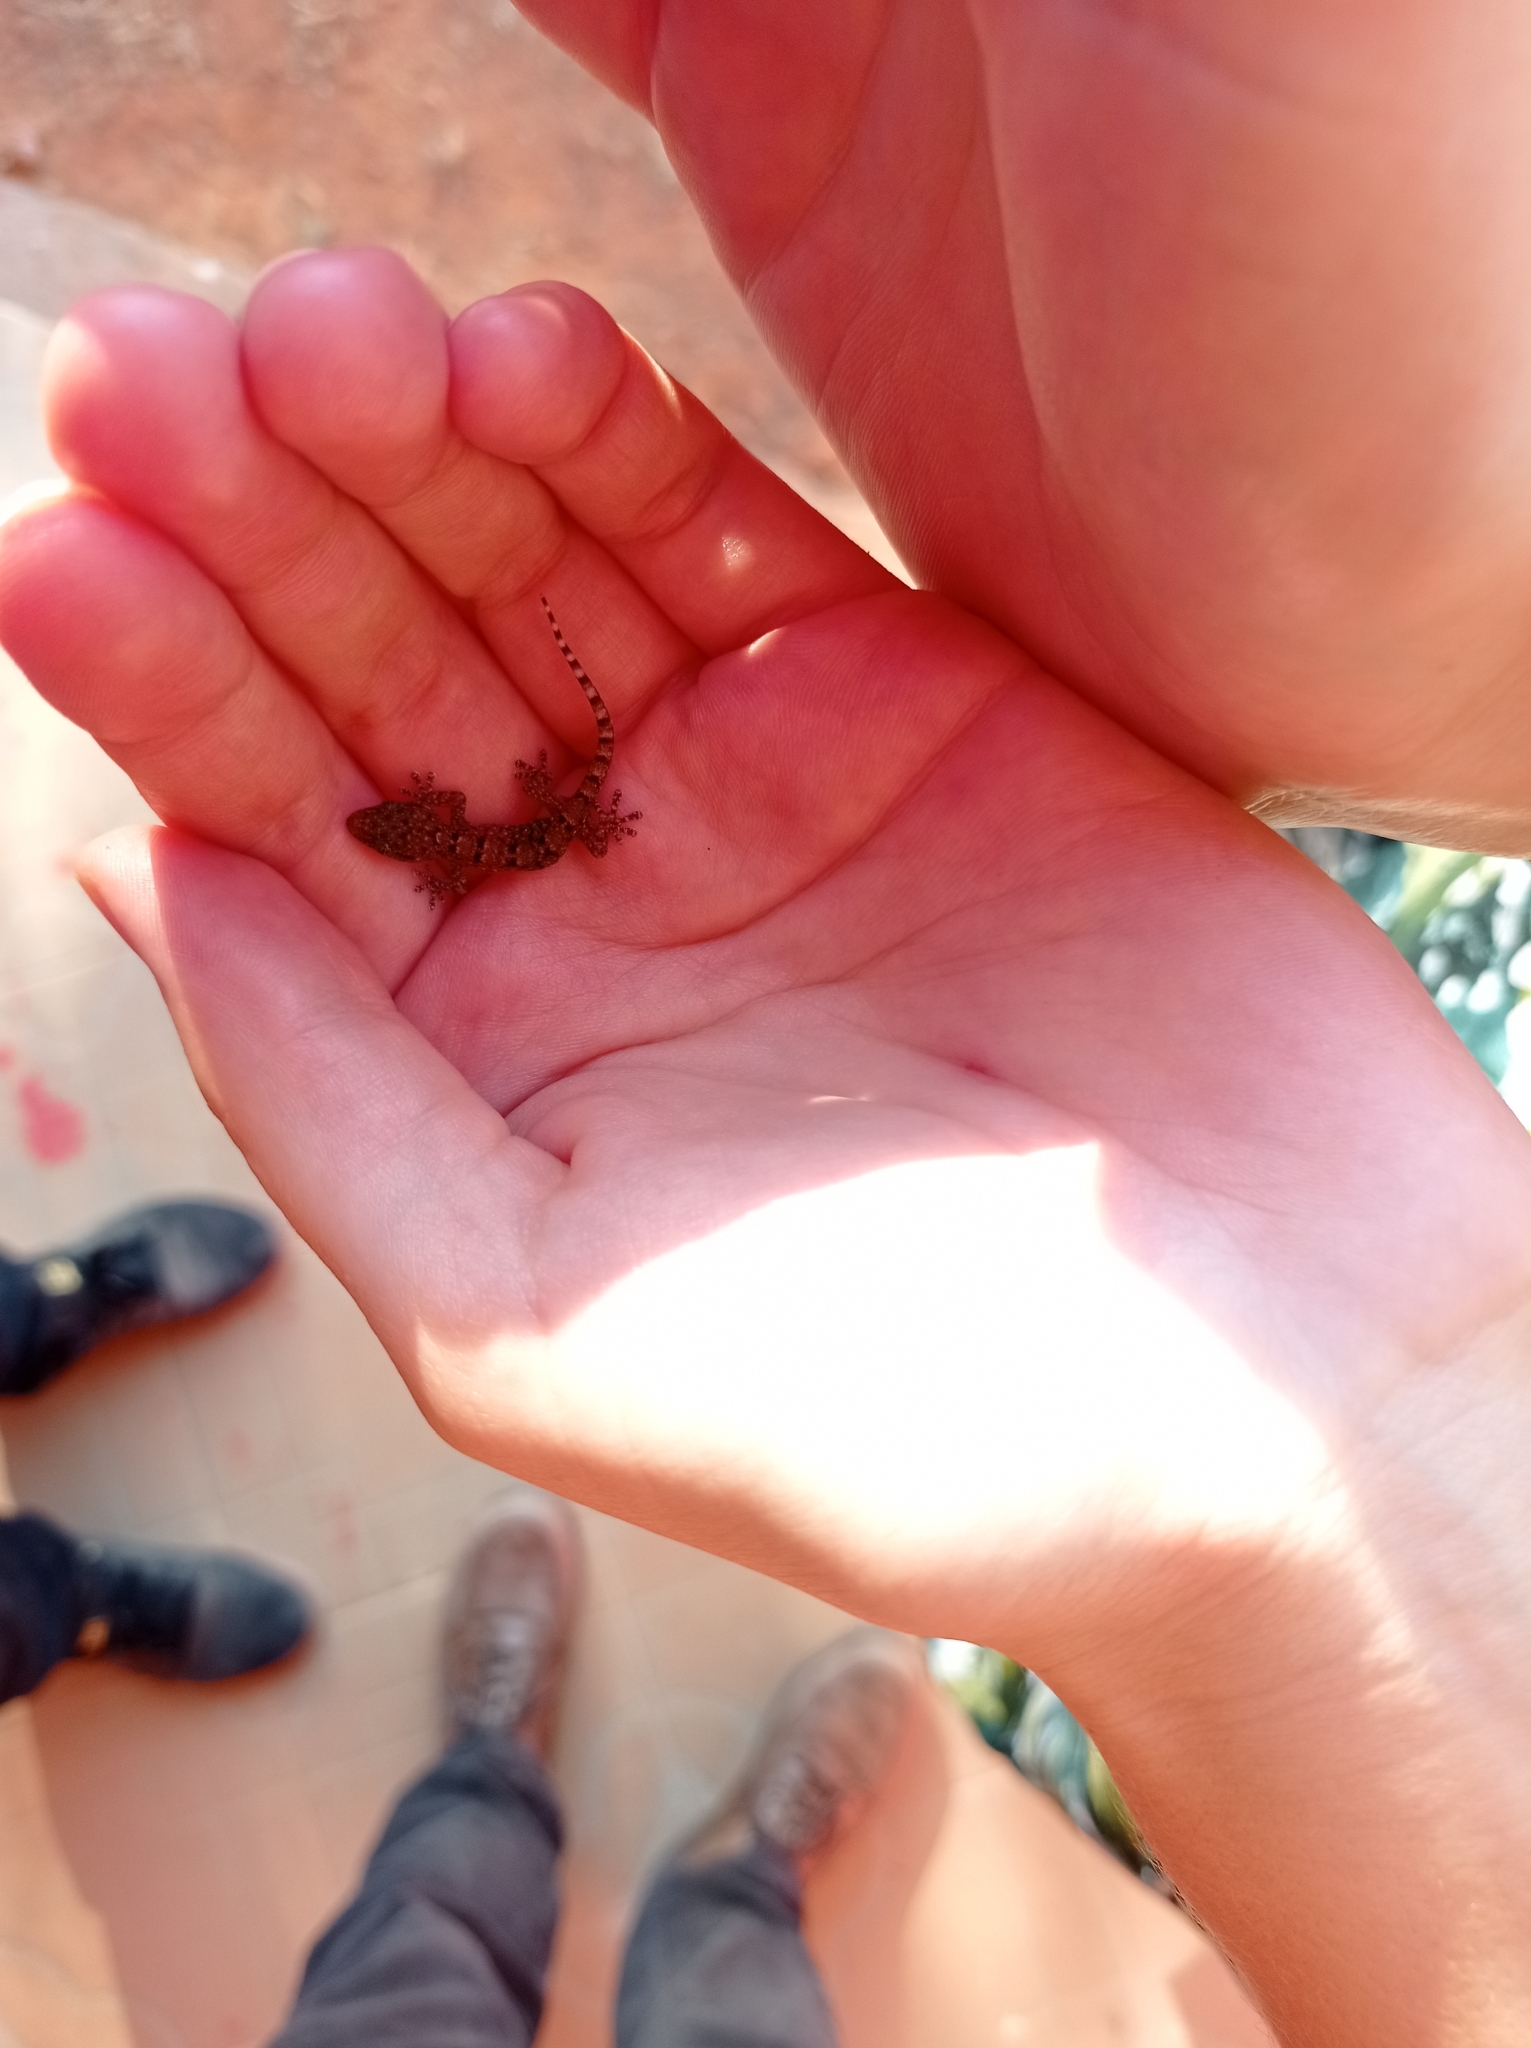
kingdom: Animalia
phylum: Chordata
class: Squamata
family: Gekkonidae
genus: Hemidactylus
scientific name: Hemidactylus mabouia
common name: House gecko
